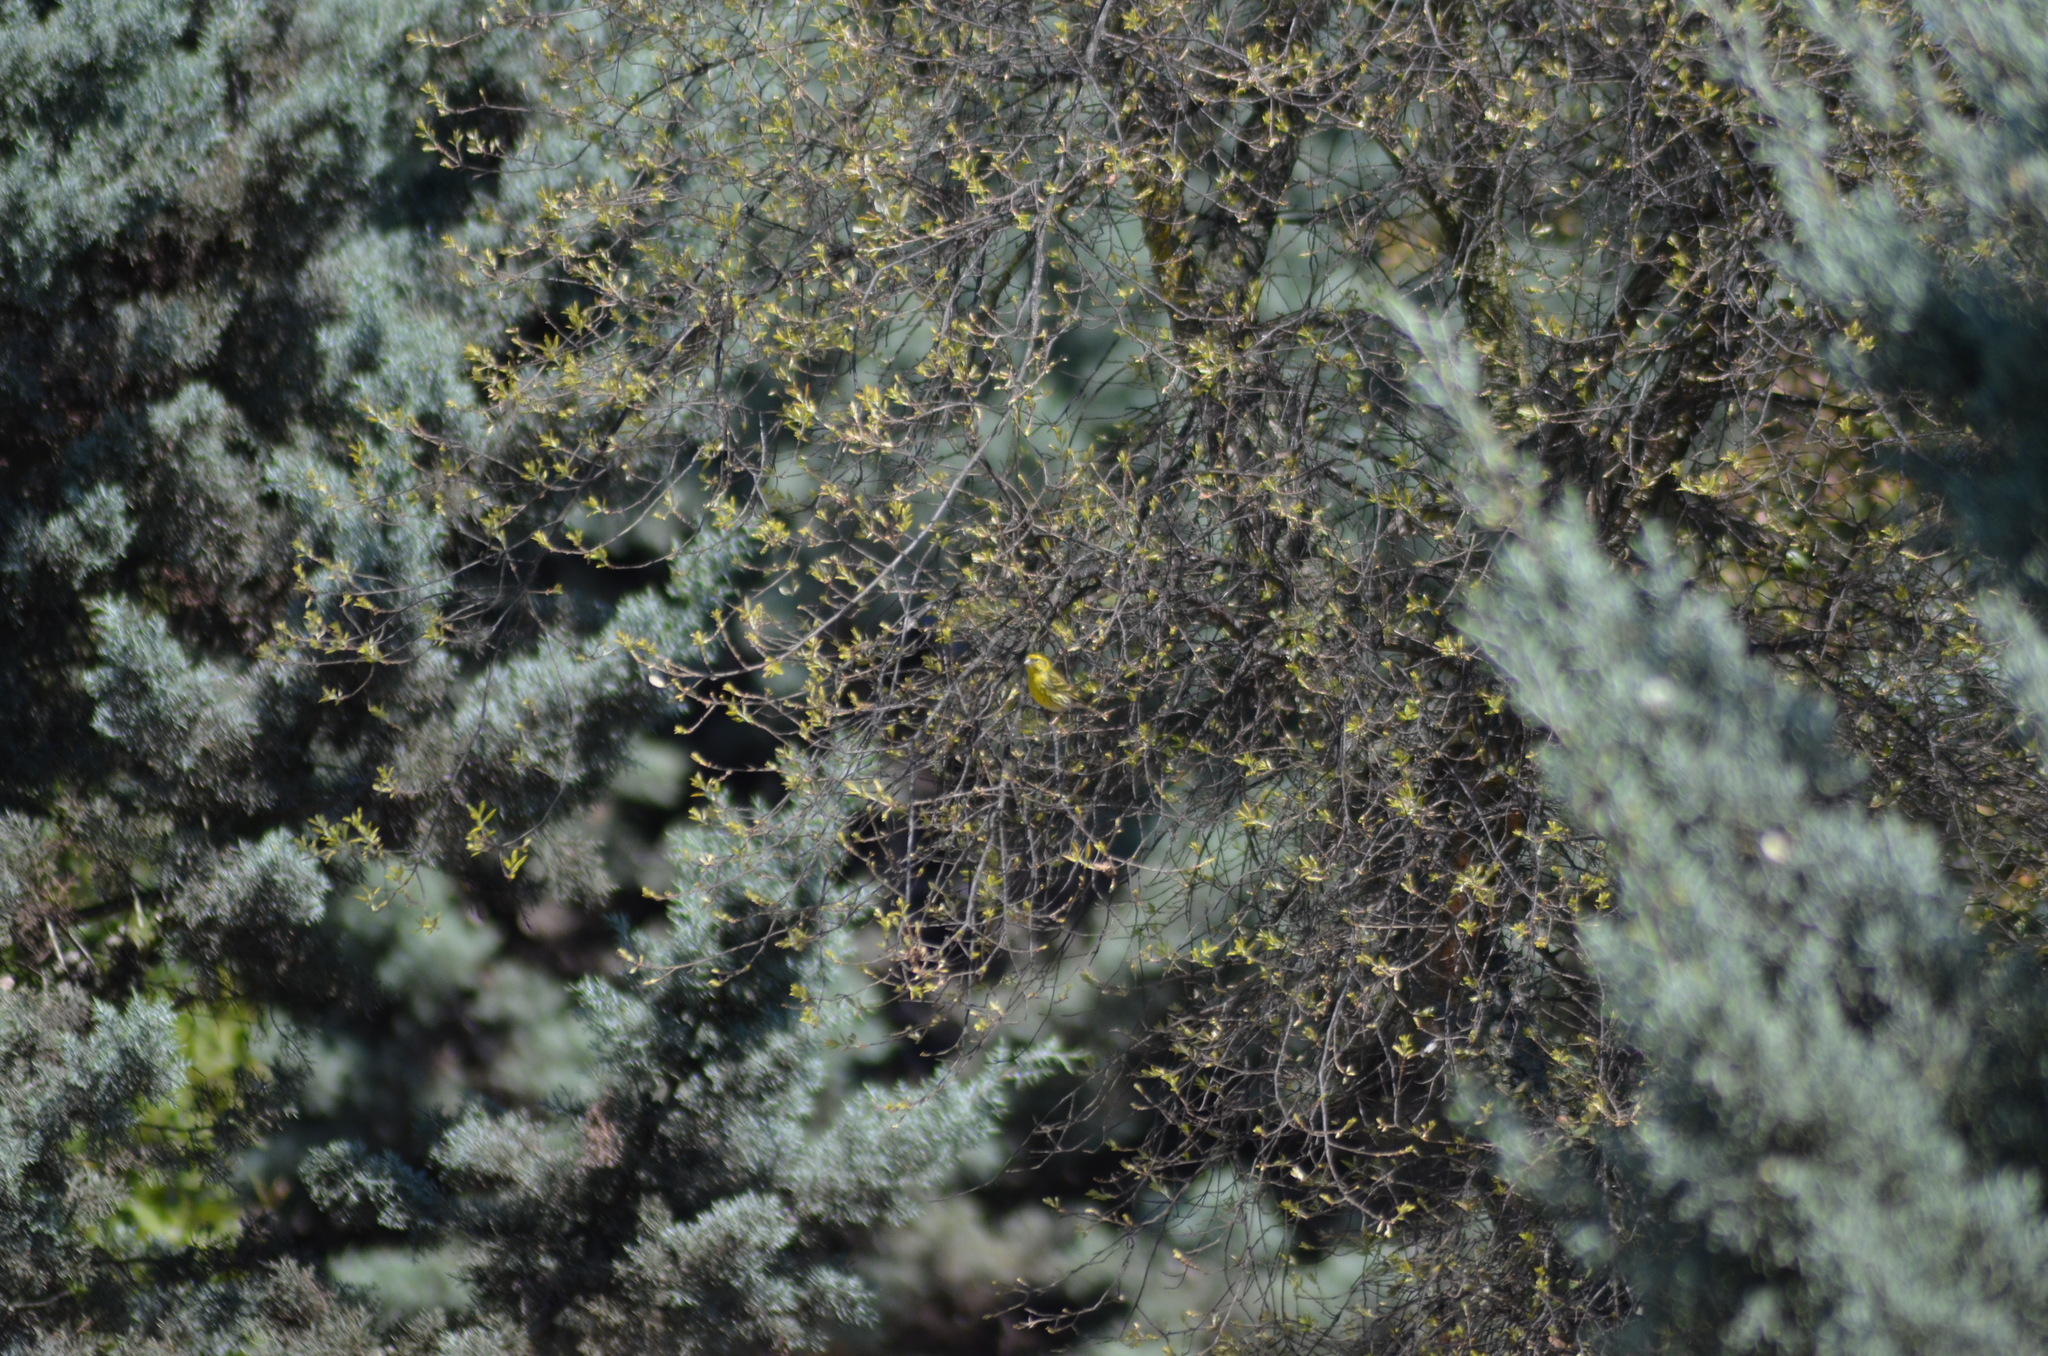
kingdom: Animalia
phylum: Chordata
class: Aves
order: Passeriformes
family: Fringillidae
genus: Serinus
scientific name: Serinus serinus
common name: European serin
